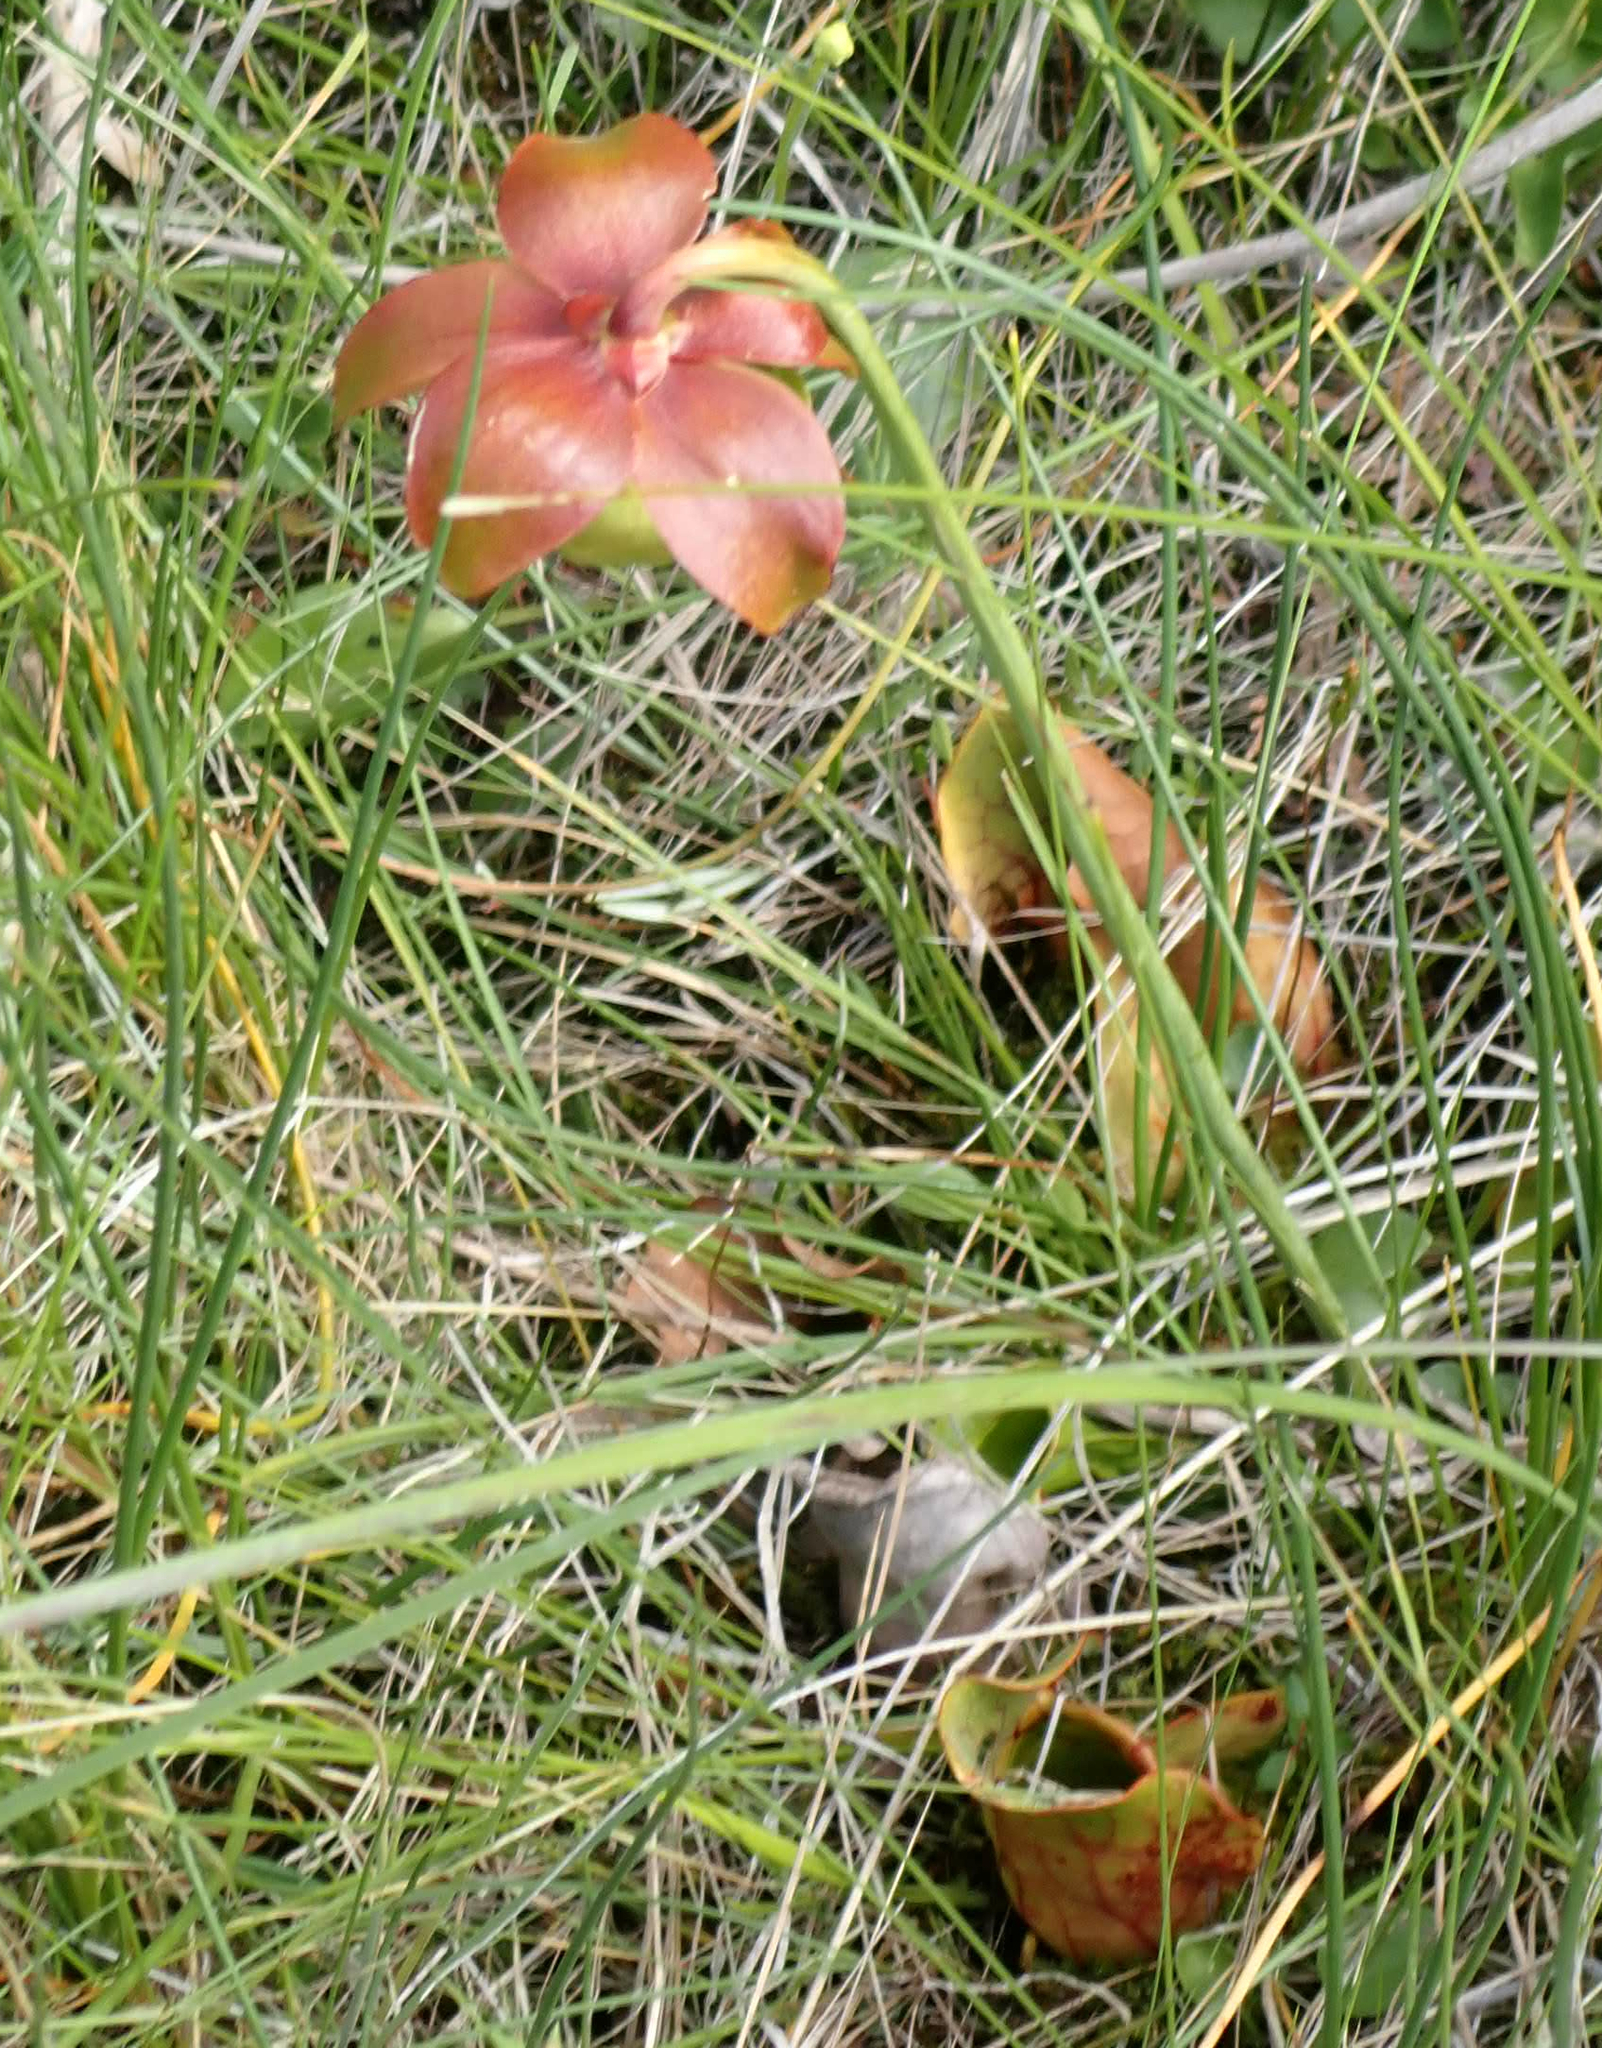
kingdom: Plantae
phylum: Tracheophyta
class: Magnoliopsida
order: Ericales
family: Sarraceniaceae
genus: Sarracenia
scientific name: Sarracenia purpurea
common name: Pitcherplant
